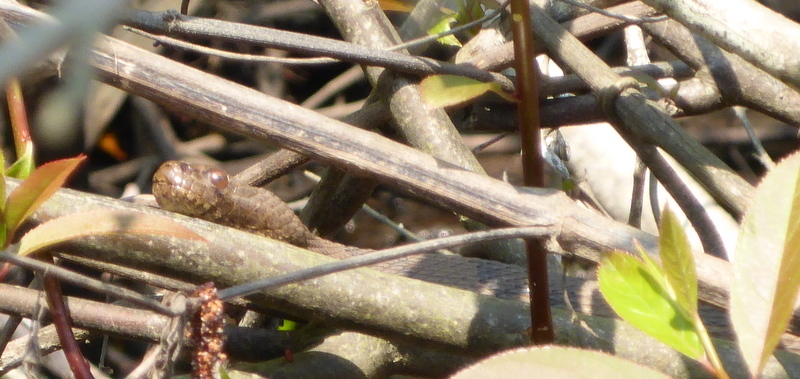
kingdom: Animalia
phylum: Chordata
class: Squamata
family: Colubridae
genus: Nerodia
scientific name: Nerodia taxispilota
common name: Brown water snake
